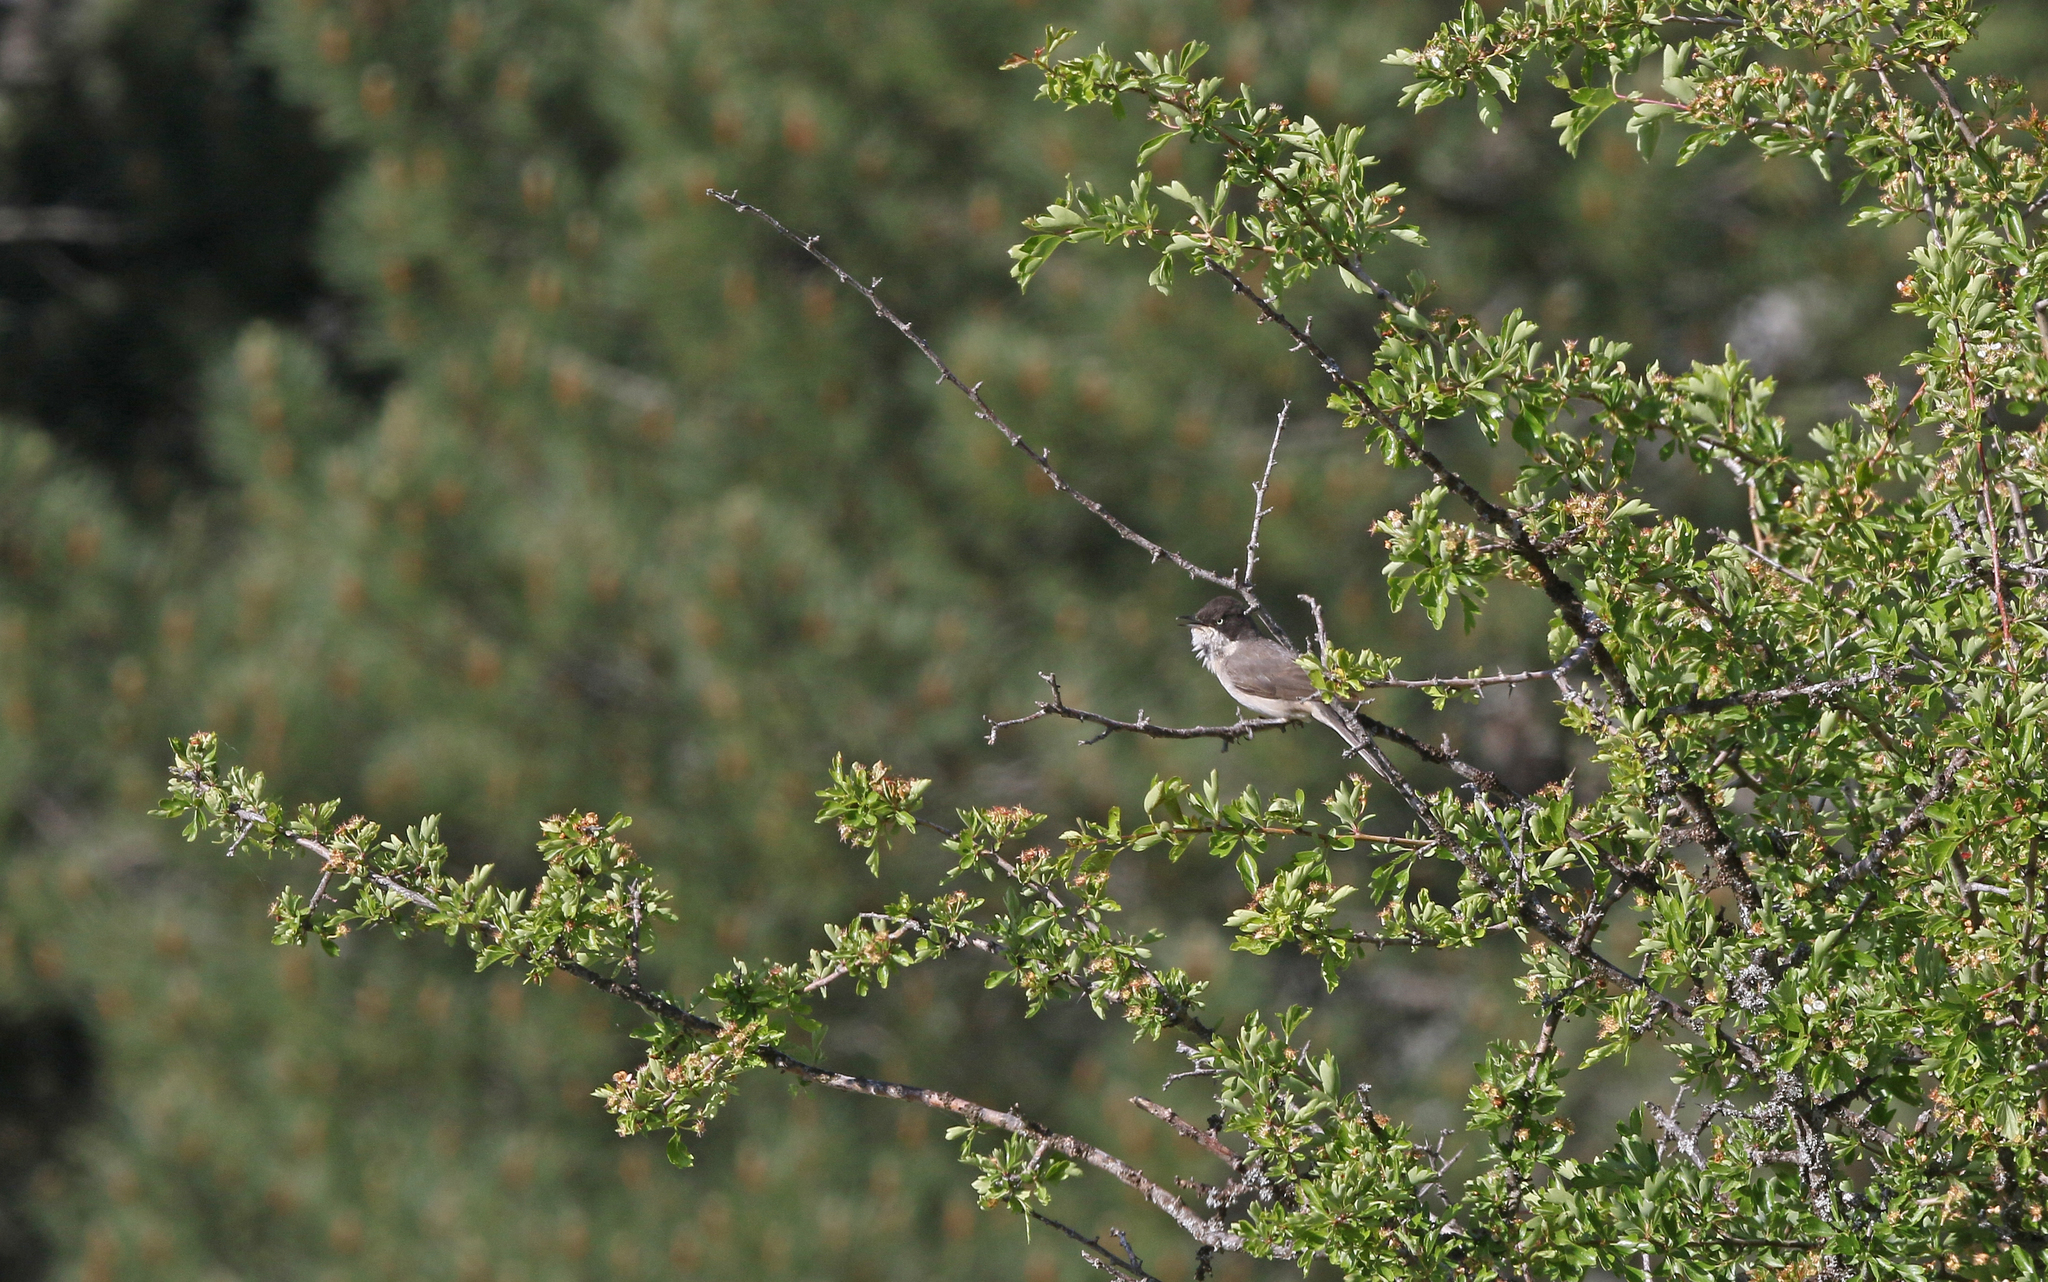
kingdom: Animalia
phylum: Chordata
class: Aves
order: Passeriformes
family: Sylviidae
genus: Sylvia
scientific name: Sylvia hortensis
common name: Orphean warbler
